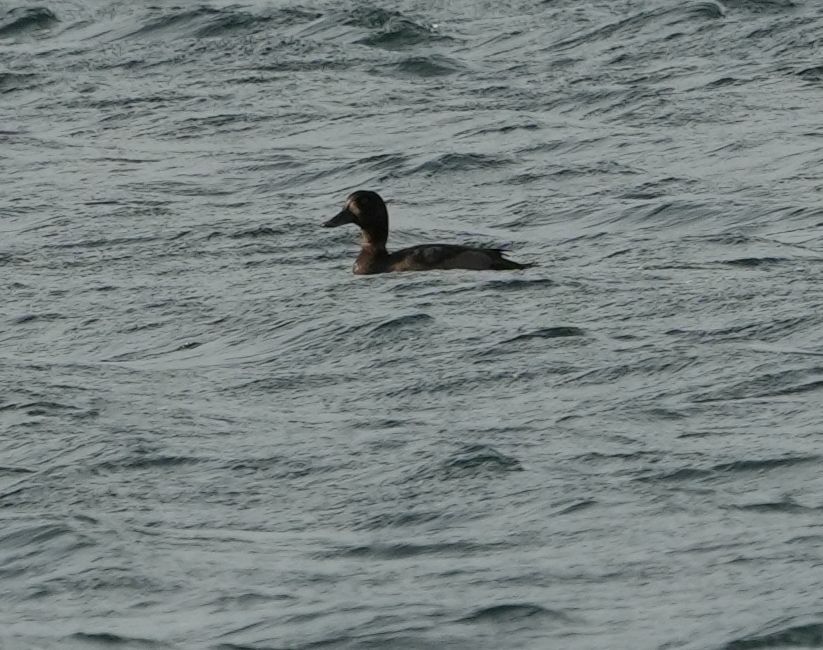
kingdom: Animalia
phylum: Chordata
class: Aves
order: Anseriformes
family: Anatidae
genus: Aythya
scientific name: Aythya marila
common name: Greater scaup
